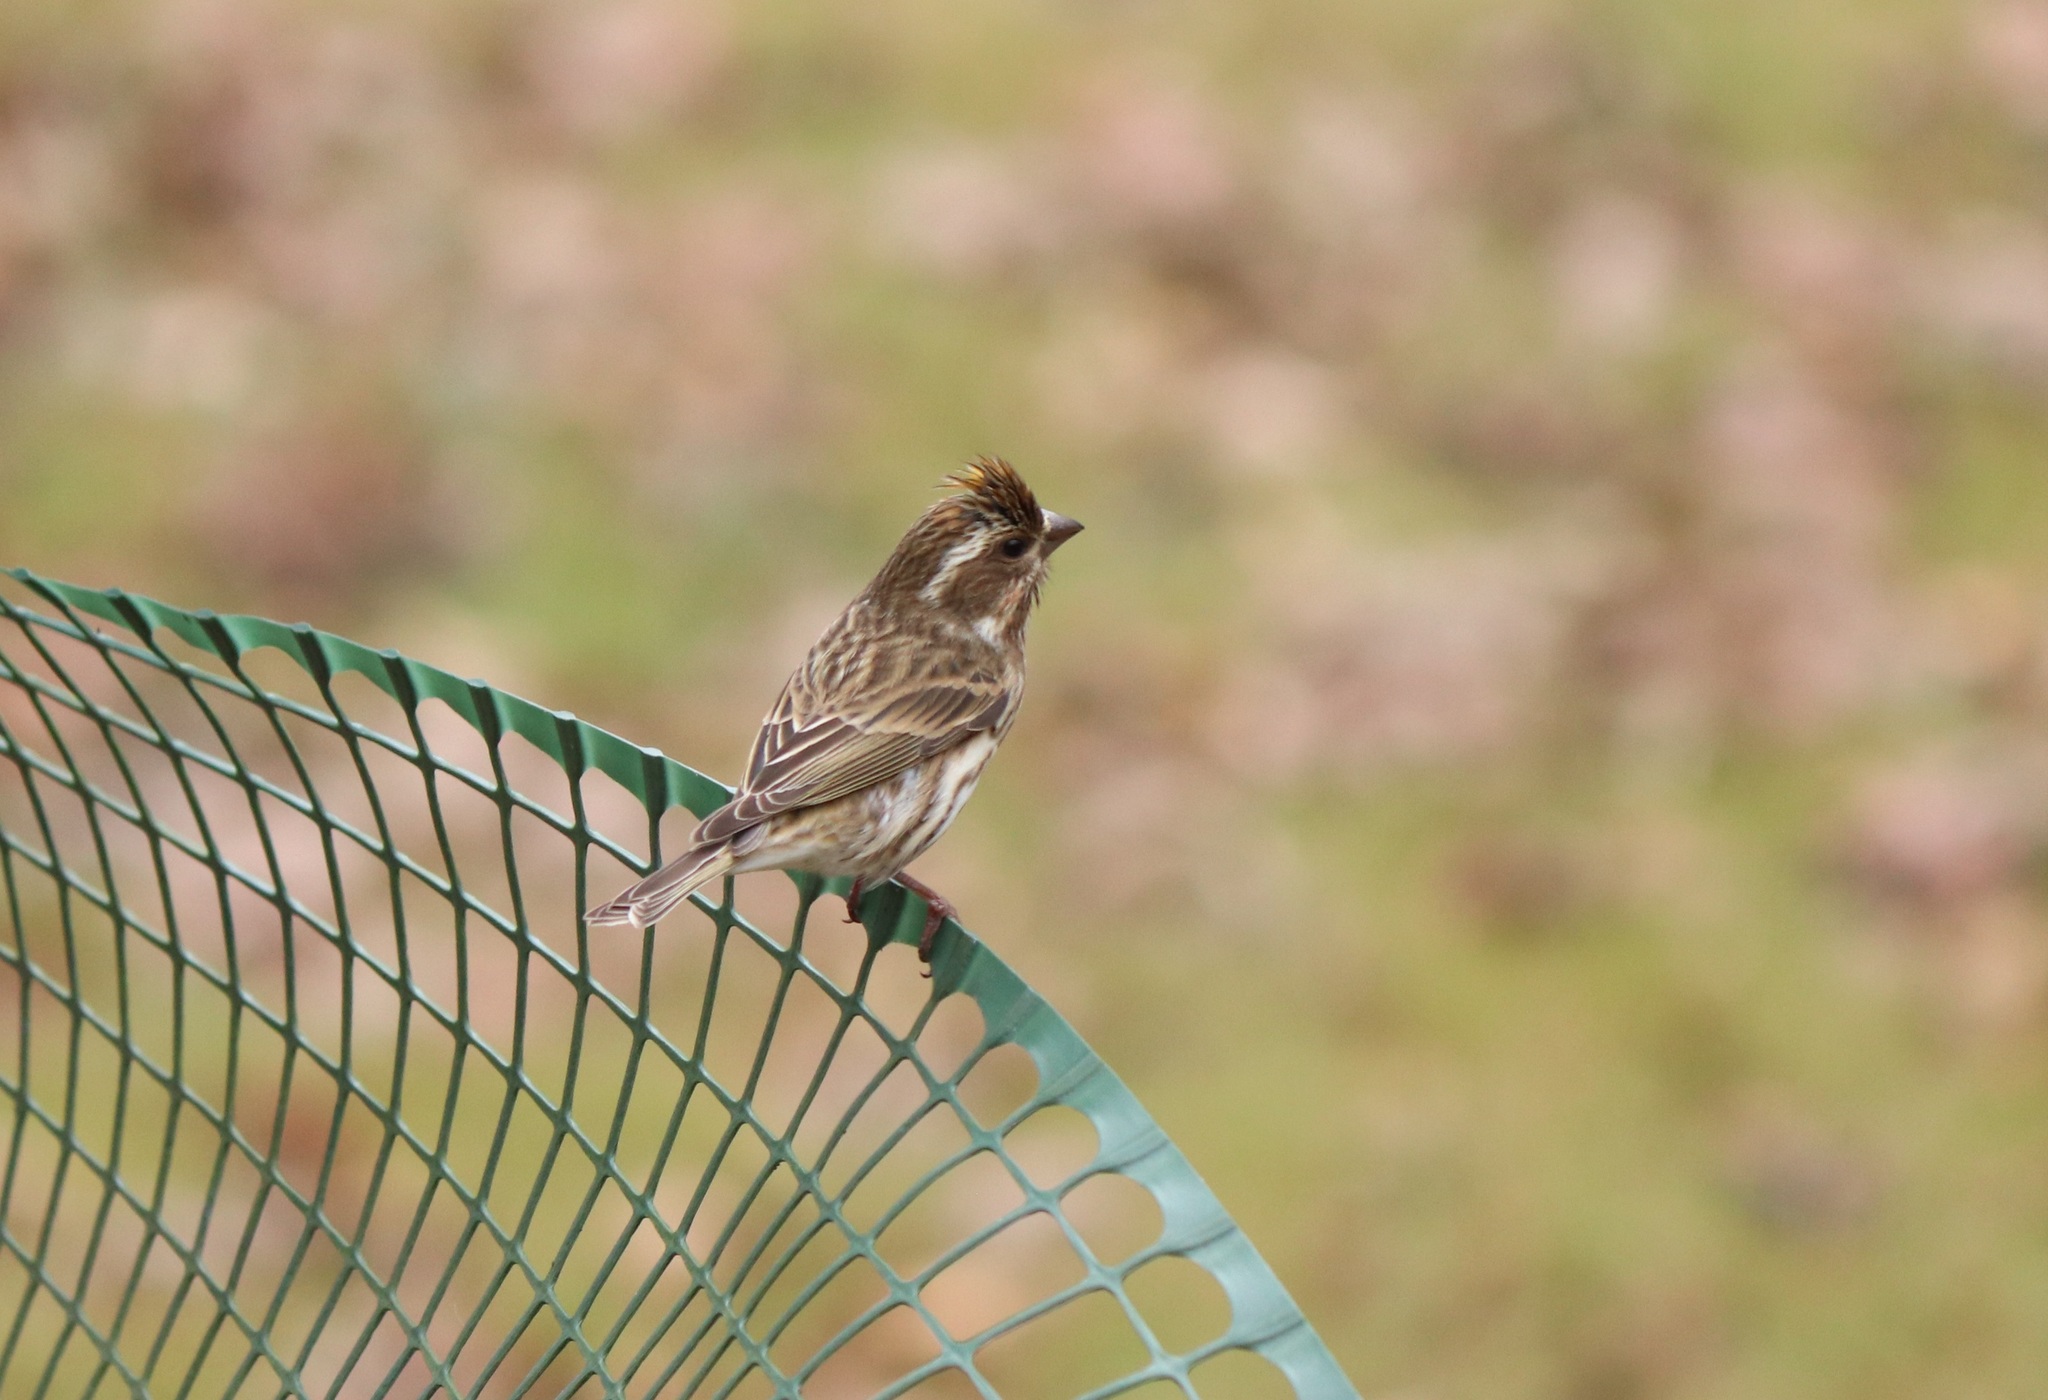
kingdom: Animalia
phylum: Chordata
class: Aves
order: Passeriformes
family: Fringillidae
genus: Haemorhous
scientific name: Haemorhous purpureus
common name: Purple finch
